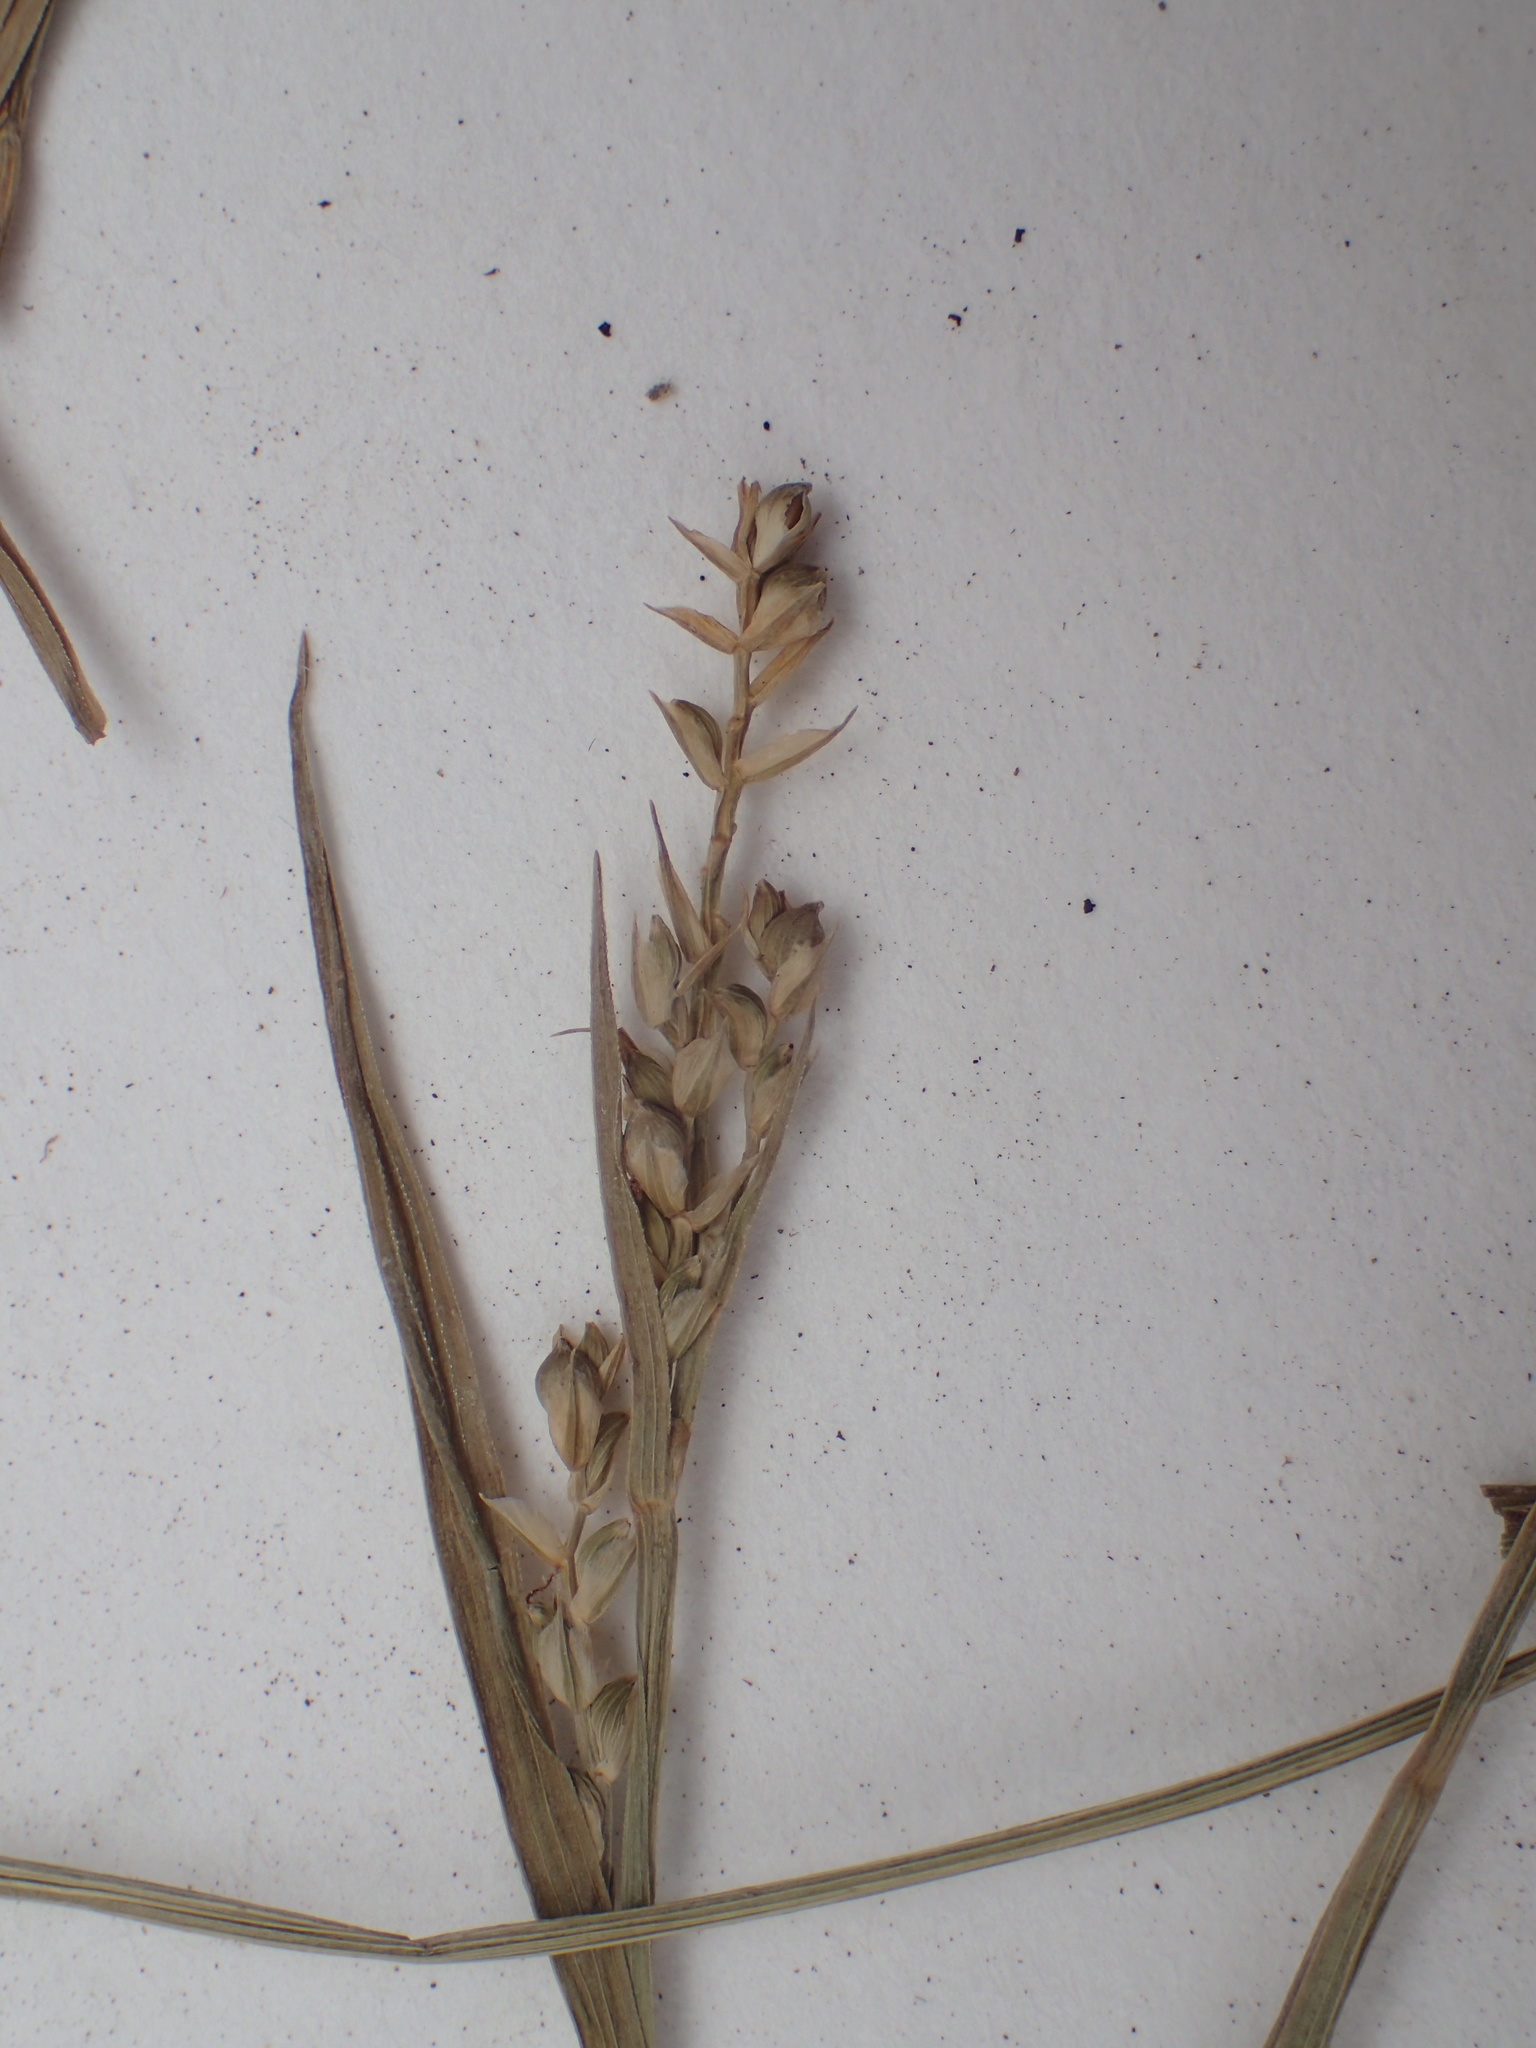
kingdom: Plantae
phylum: Tracheophyta
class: Liliopsida
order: Poales
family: Cyperaceae
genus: Carex
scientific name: Carex ormostachya
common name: Necklace spike sedge
